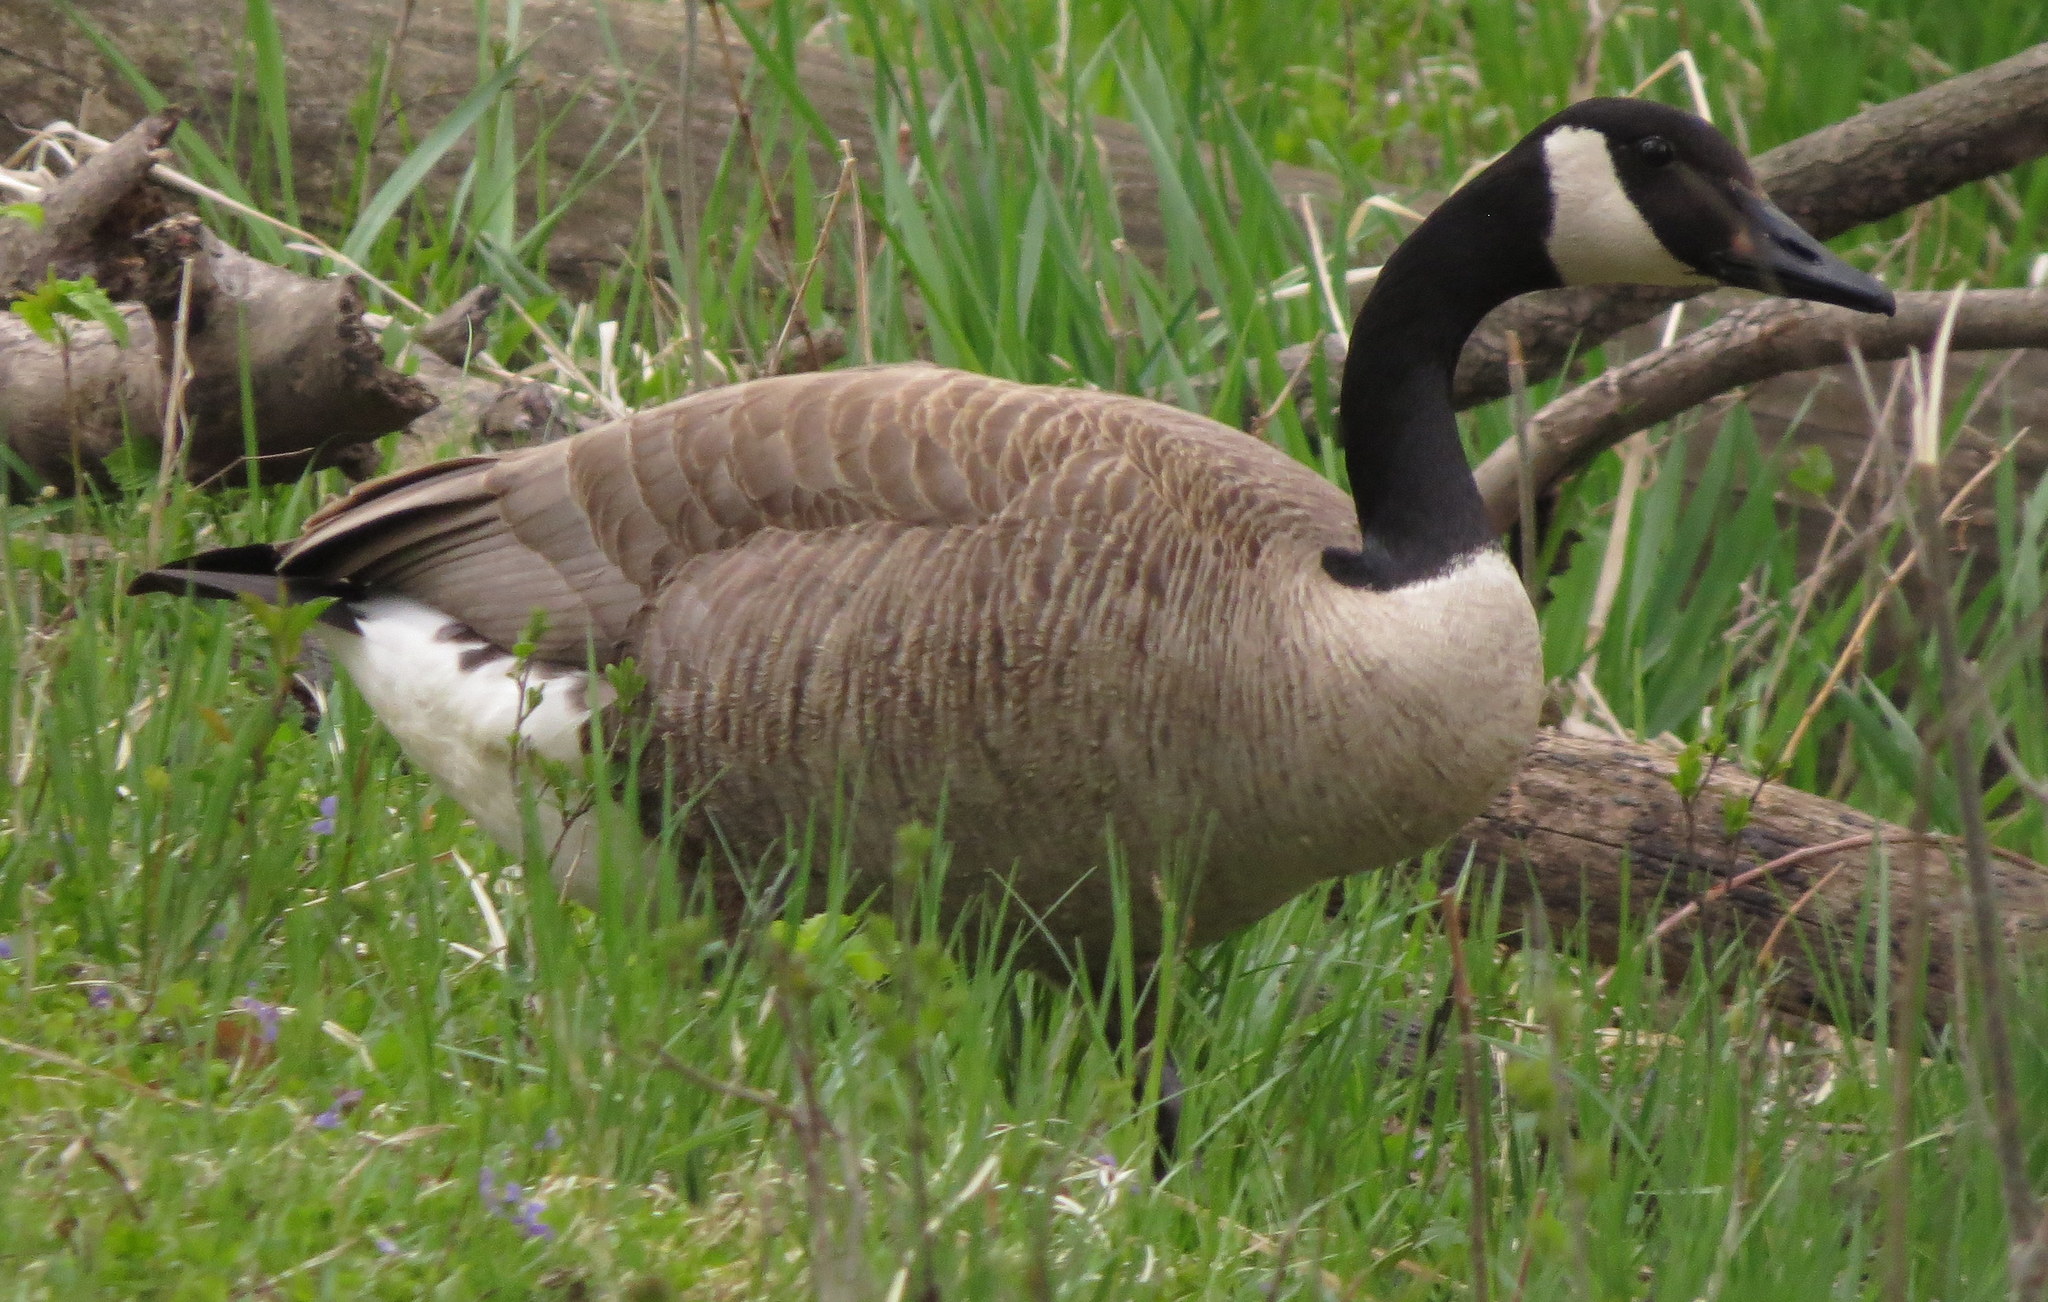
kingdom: Animalia
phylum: Chordata
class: Aves
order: Anseriformes
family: Anatidae
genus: Branta
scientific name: Branta canadensis
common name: Canada goose
